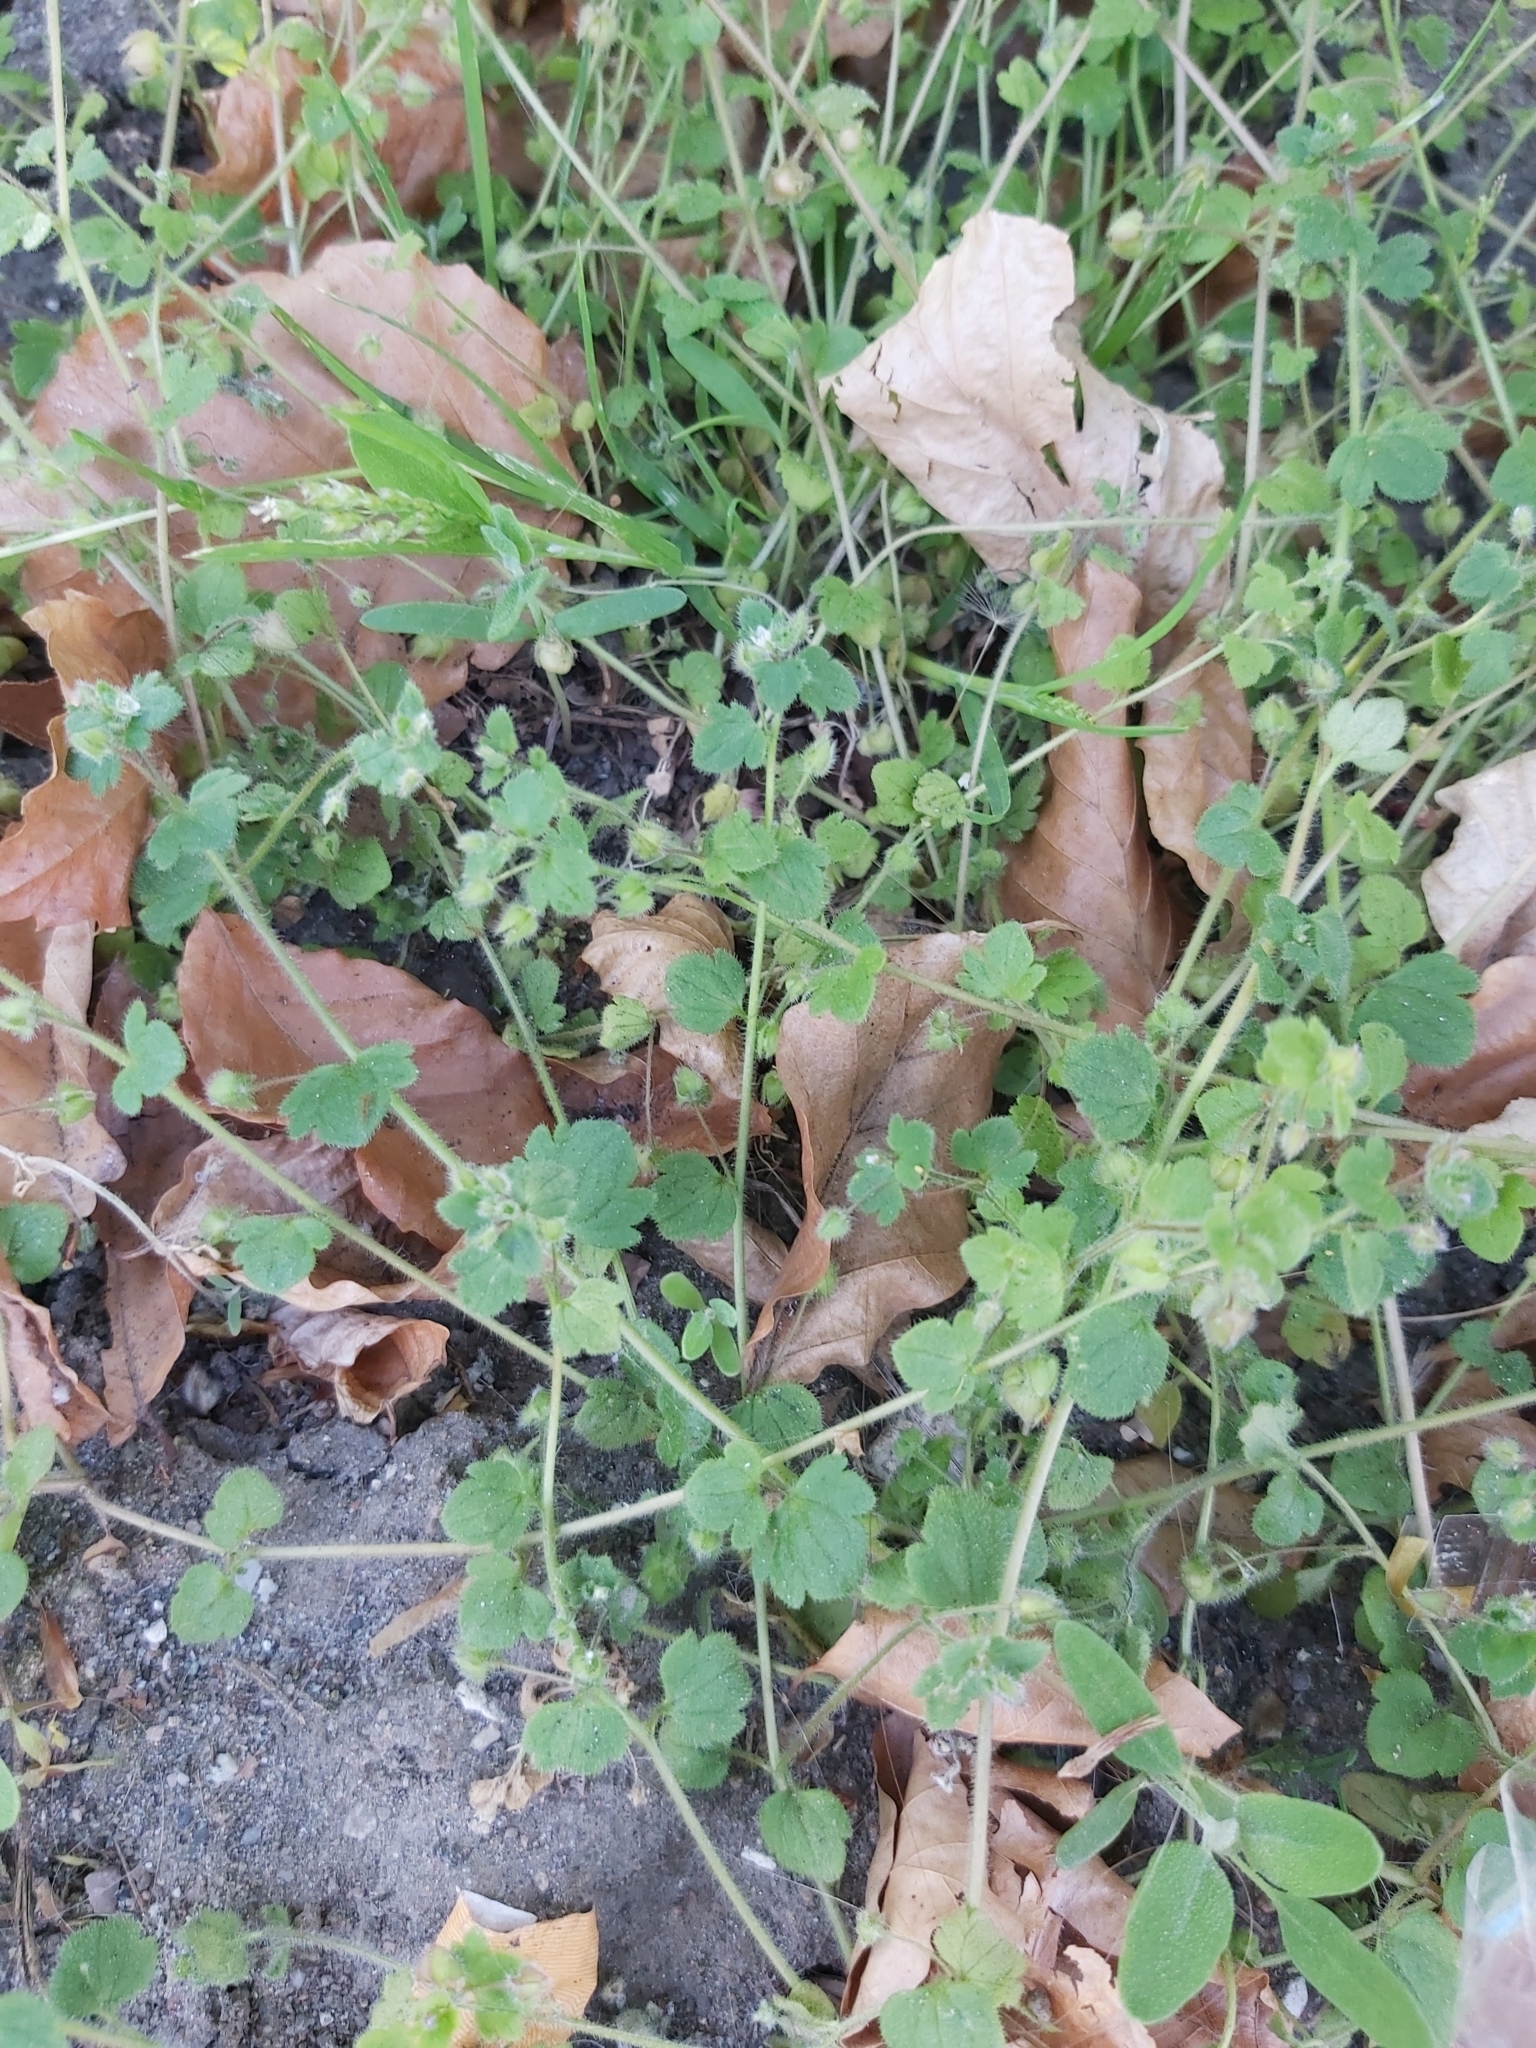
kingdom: Plantae
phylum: Tracheophyta
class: Magnoliopsida
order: Lamiales
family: Plantaginaceae
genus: Veronica
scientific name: Veronica sublobata
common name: False ivy-leaved speedwell
